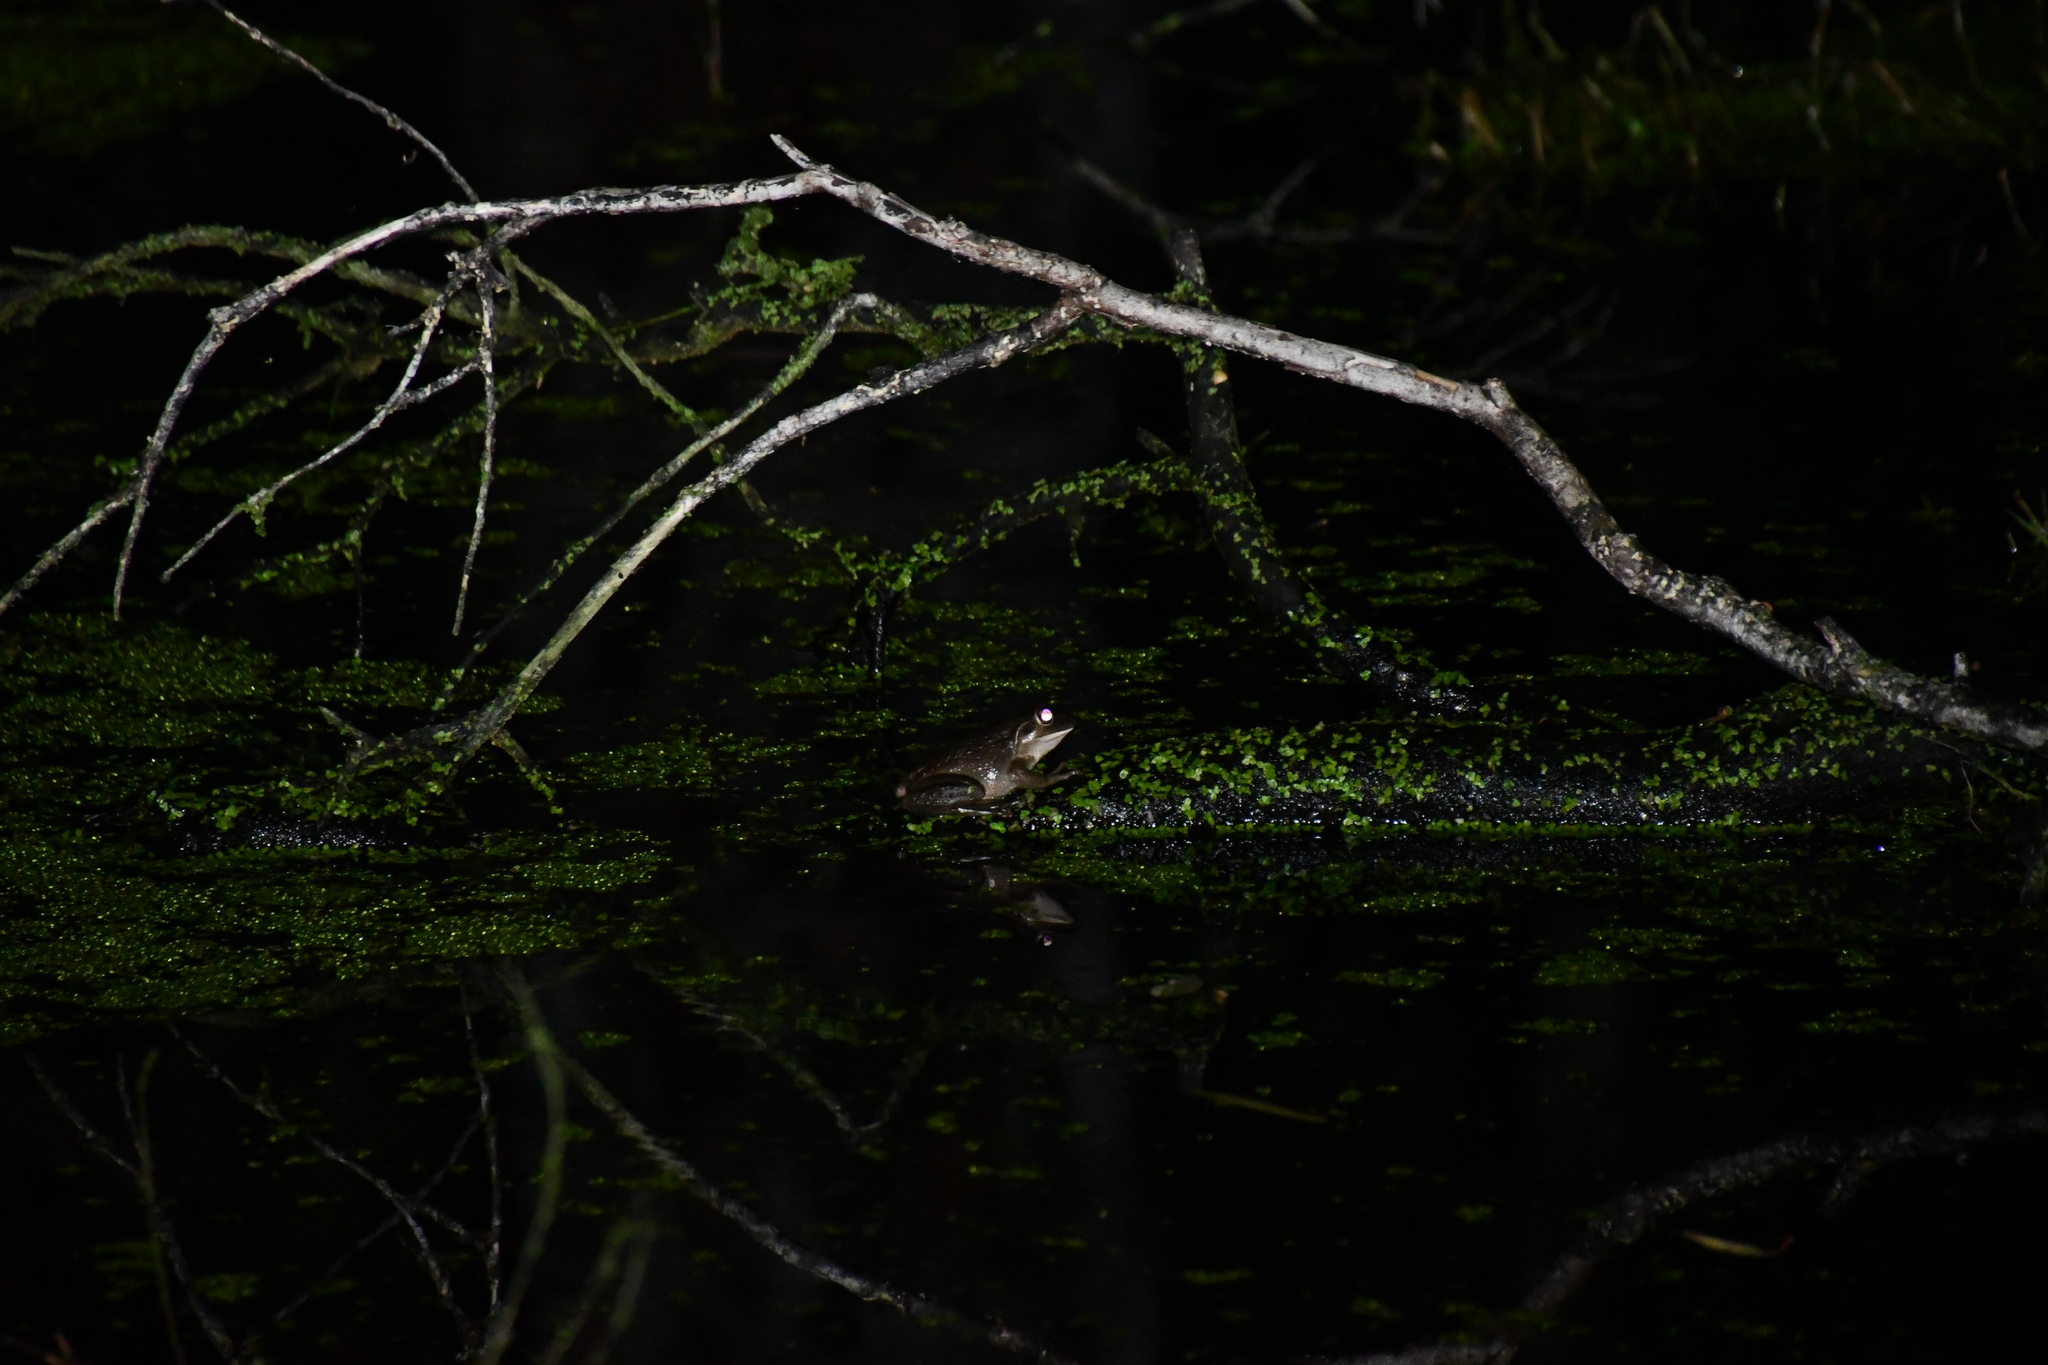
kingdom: Animalia
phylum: Chordata
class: Amphibia
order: Anura
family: Pelodryadidae
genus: Ranoidea
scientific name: Ranoidea moorei
